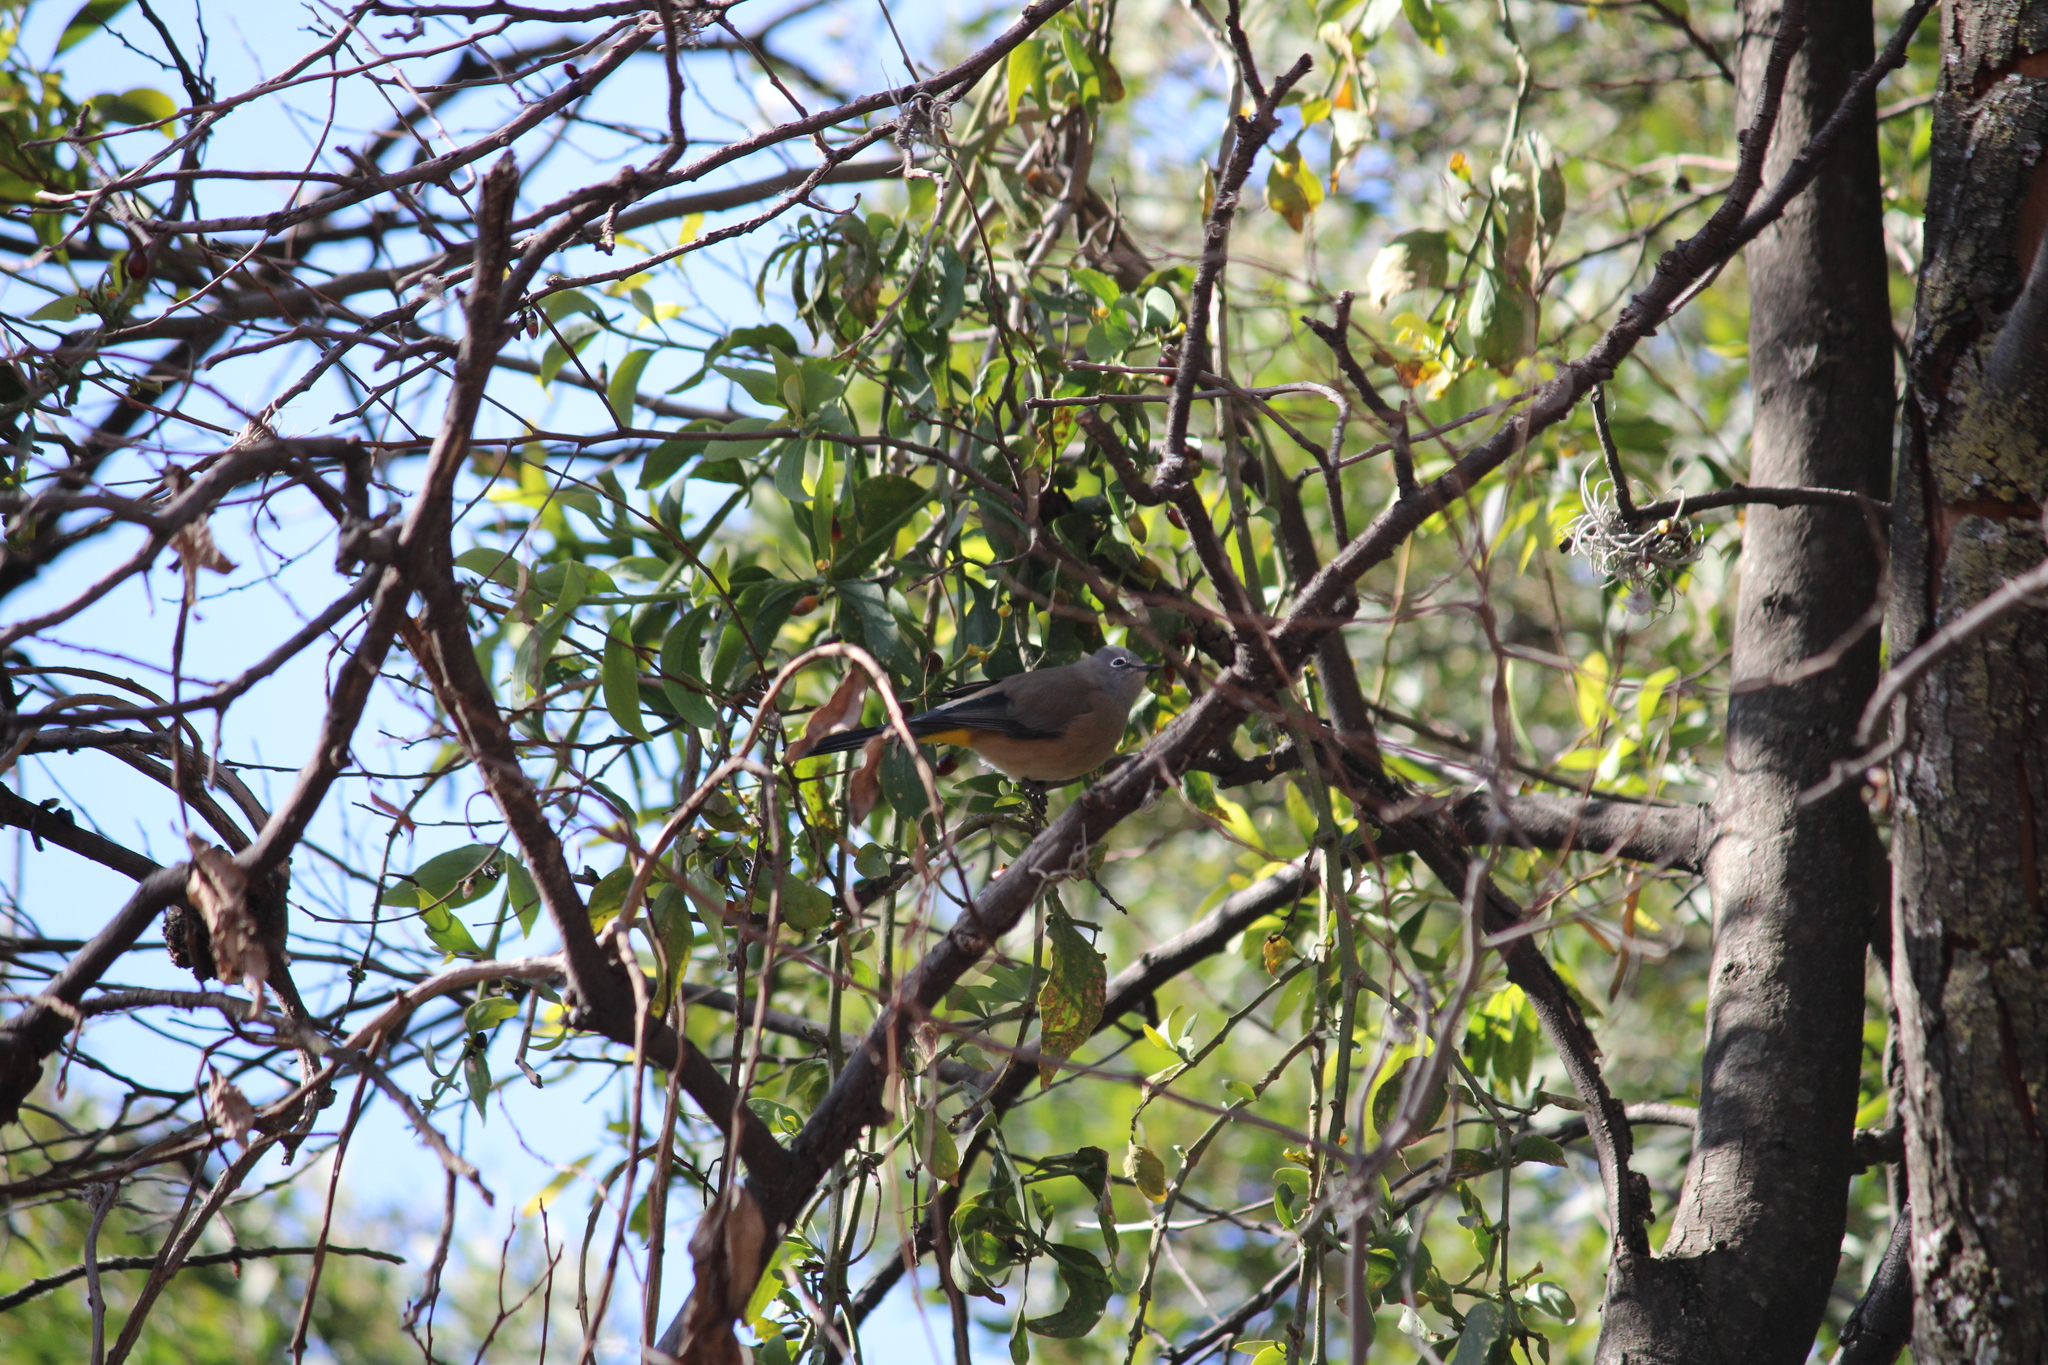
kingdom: Animalia
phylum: Chordata
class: Aves
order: Passeriformes
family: Ptilogonatidae
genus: Ptilogonys
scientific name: Ptilogonys cinereus
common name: Gray silky-flycatcher
